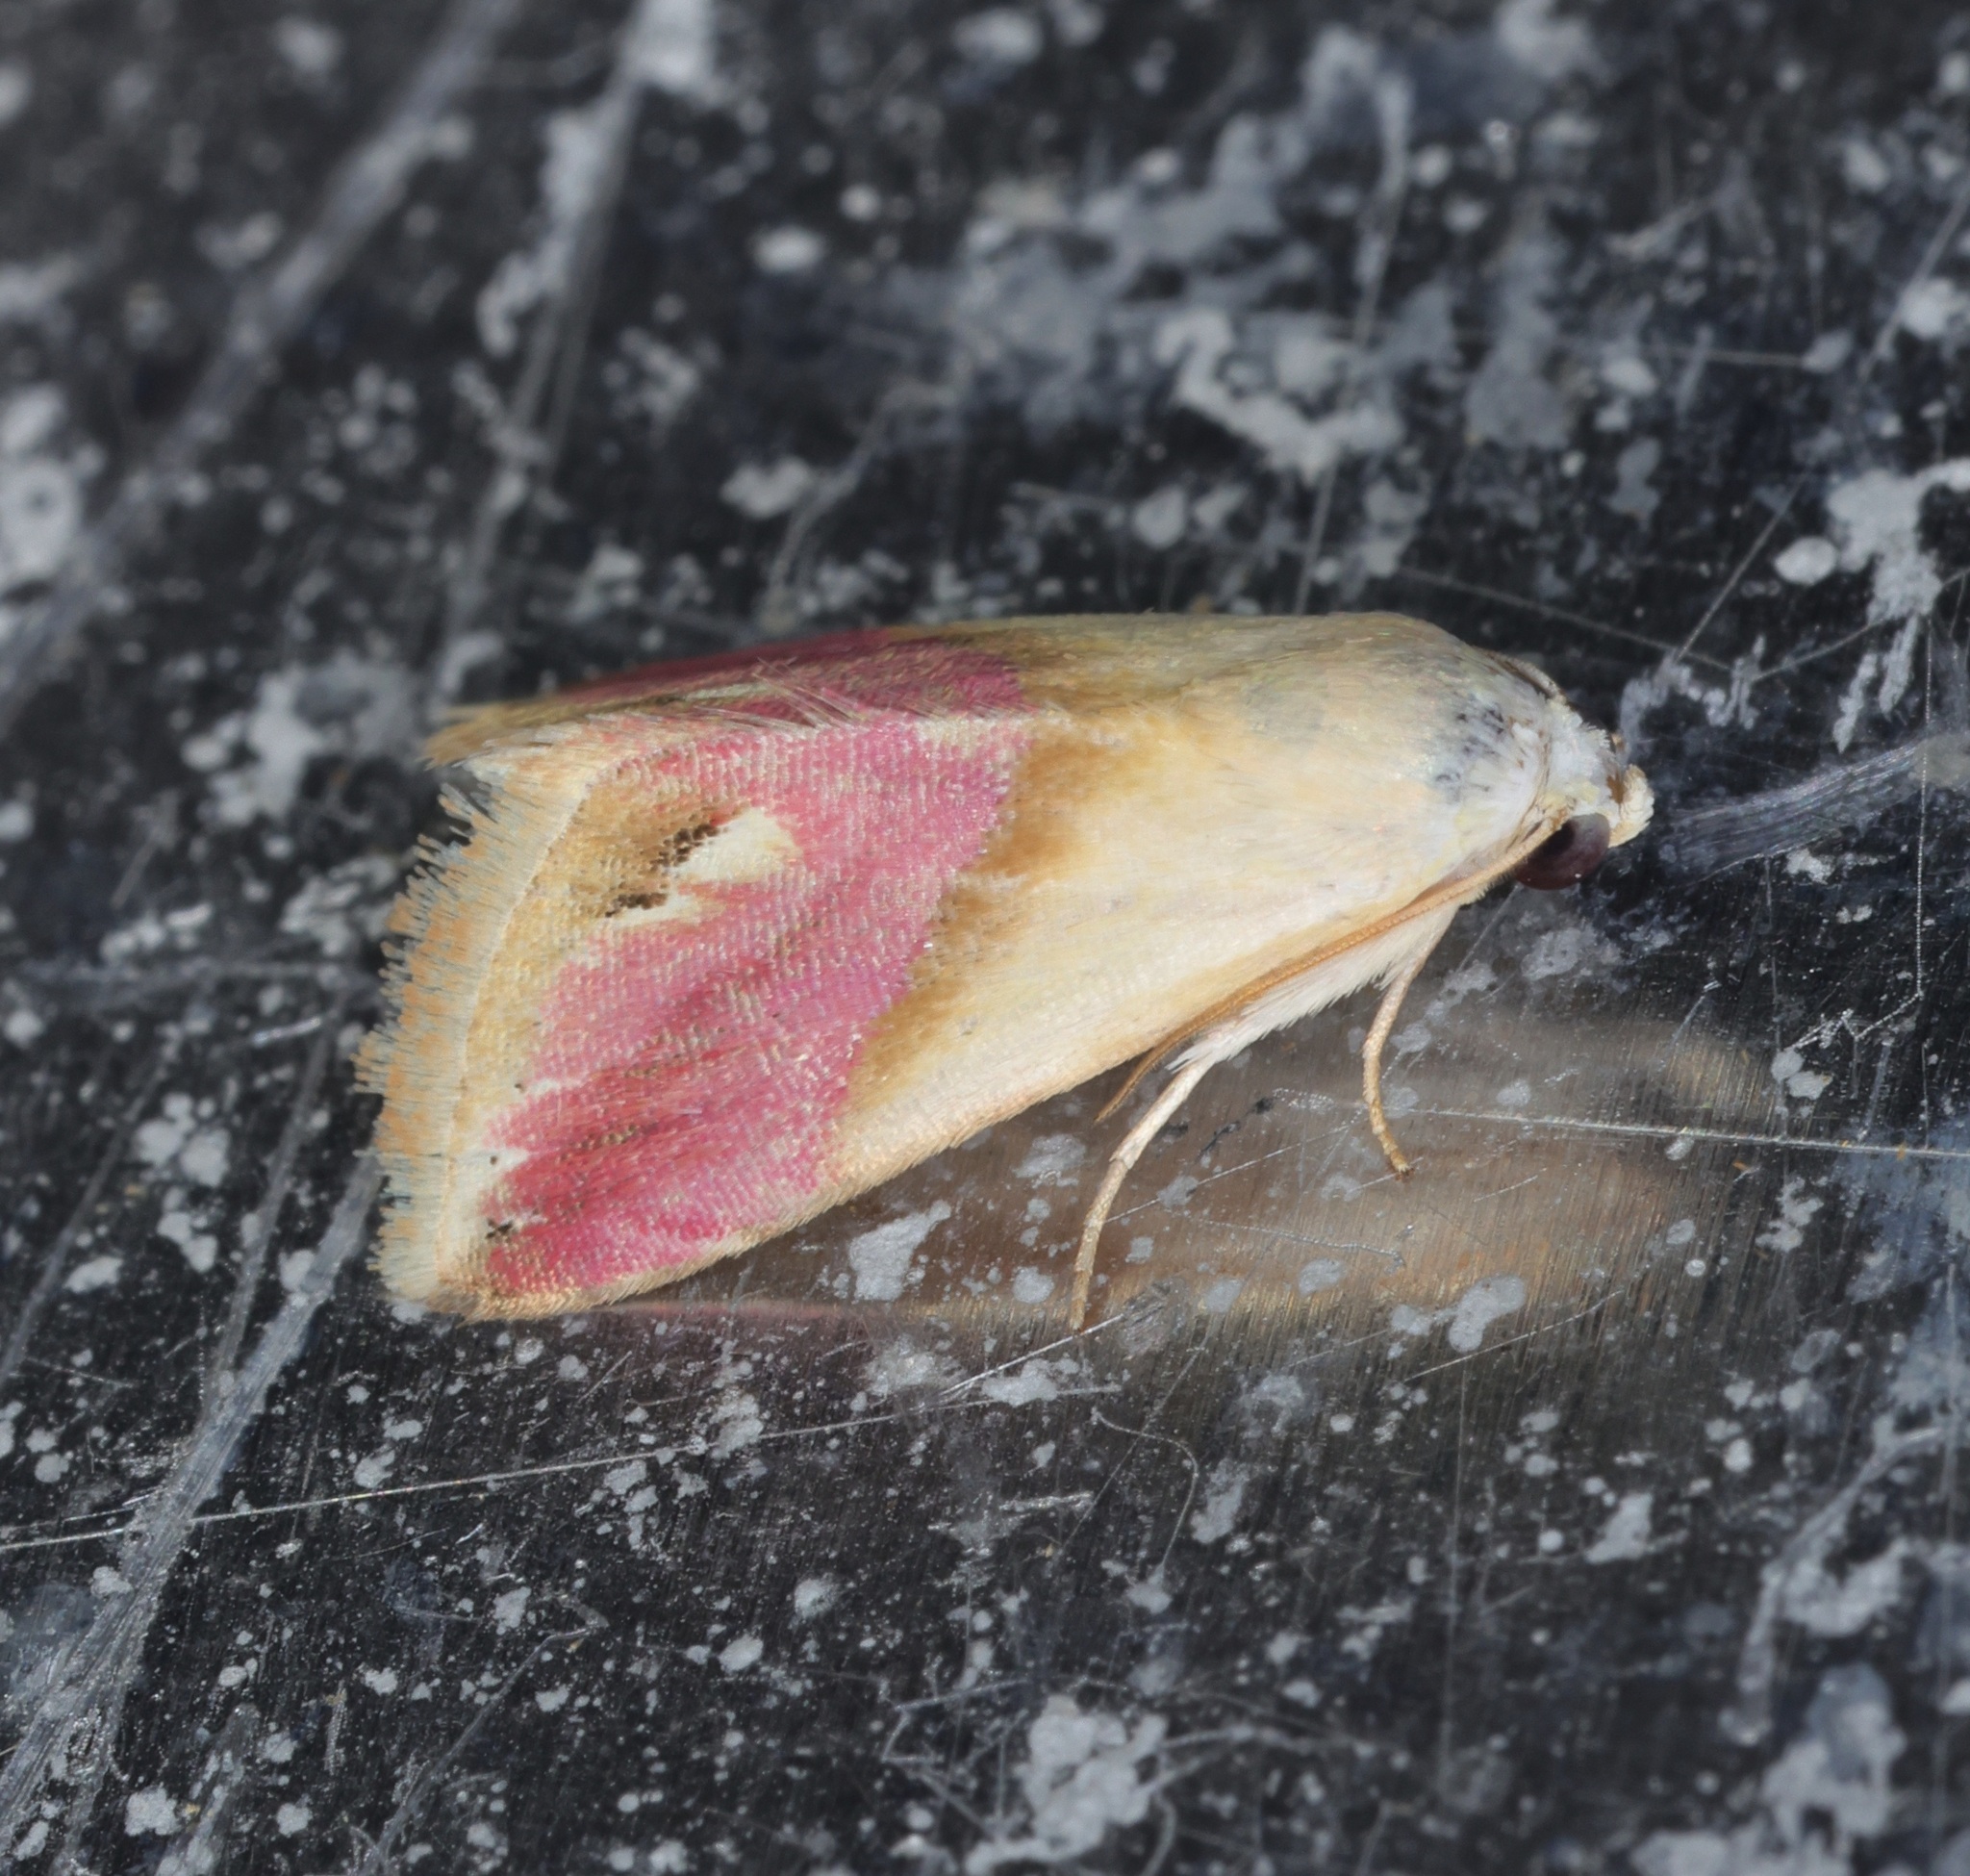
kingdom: Animalia
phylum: Arthropoda
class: Insecta
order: Lepidoptera
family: Noctuidae
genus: Eublemma
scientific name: Eublemma cochylioides
